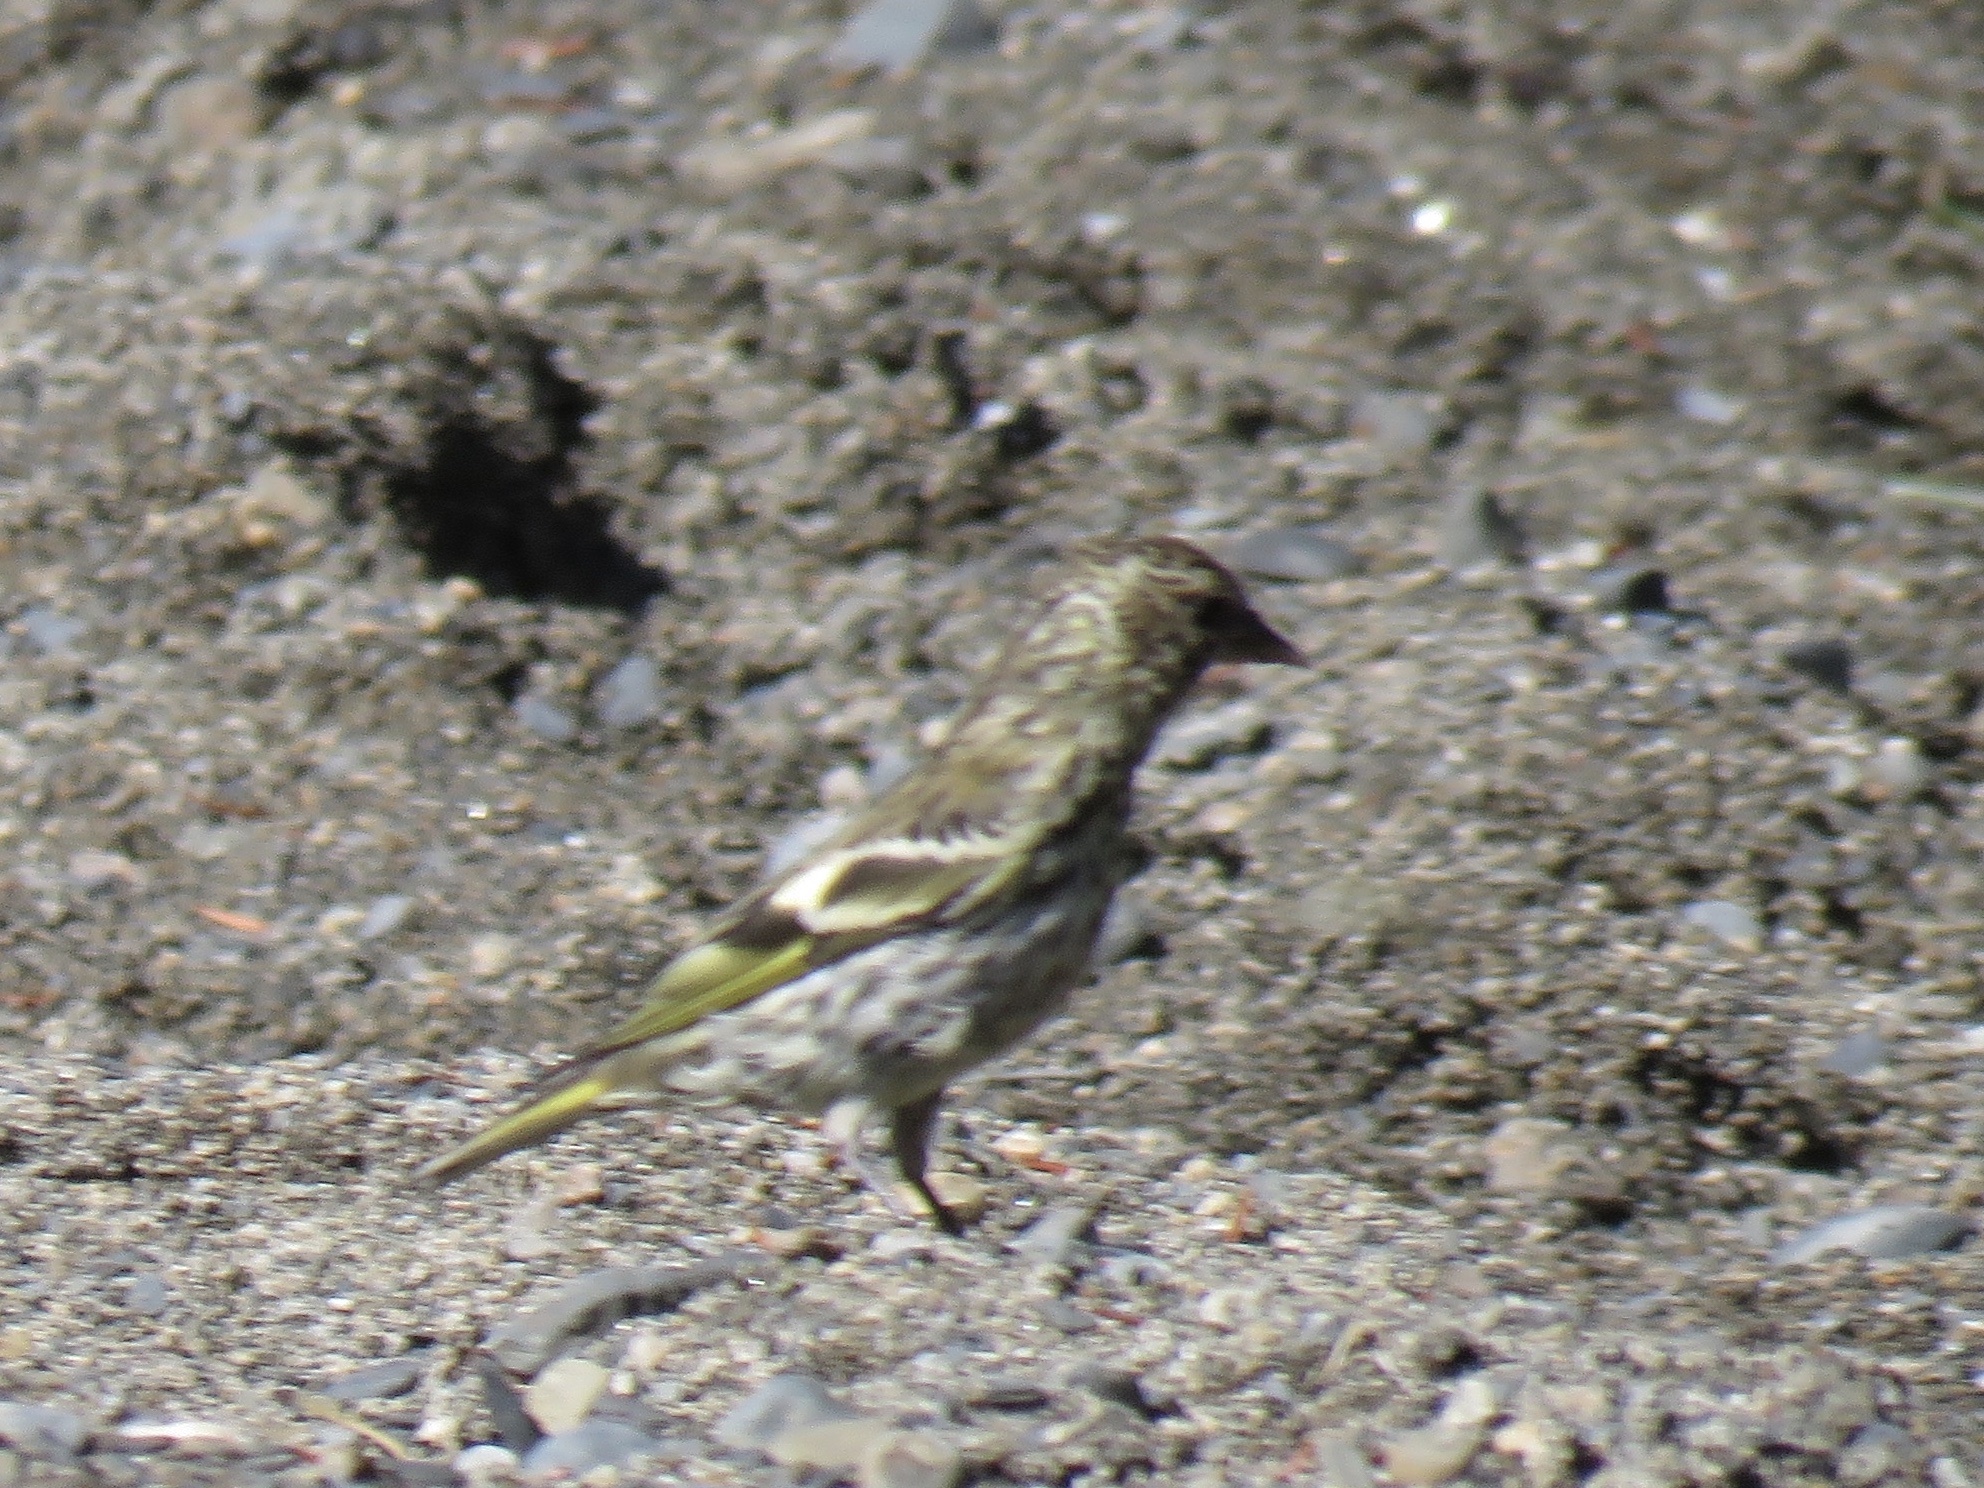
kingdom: Animalia
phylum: Chordata
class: Aves
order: Passeriformes
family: Fringillidae
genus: Spinus
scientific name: Spinus pinus
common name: Pine siskin
